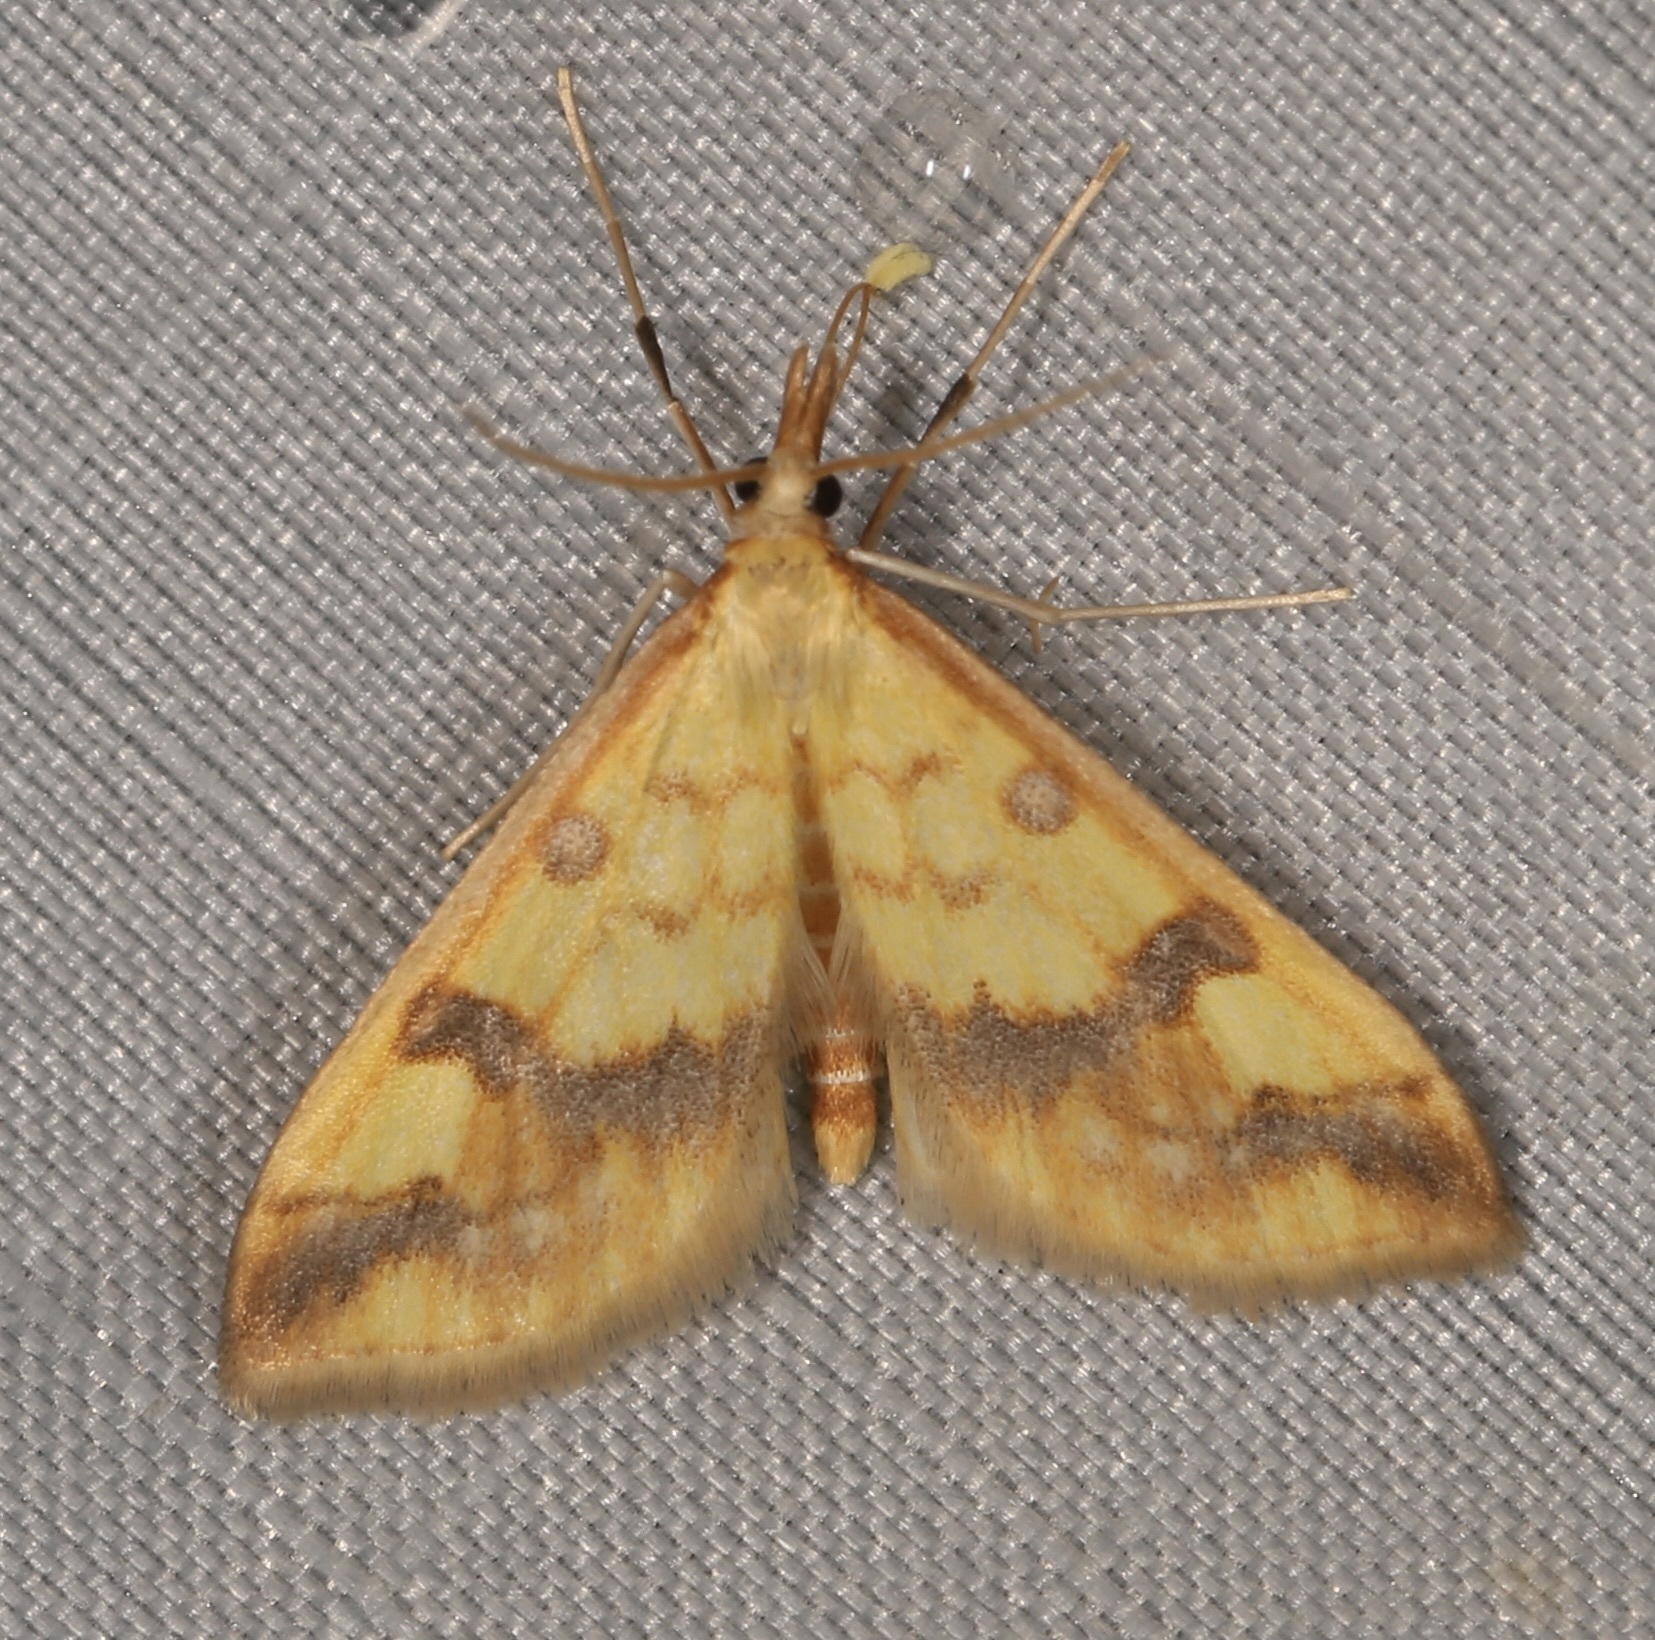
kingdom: Animalia
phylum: Arthropoda
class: Insecta
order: Lepidoptera
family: Crambidae
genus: Choristostigma
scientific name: Choristostigma plumbosignalis
